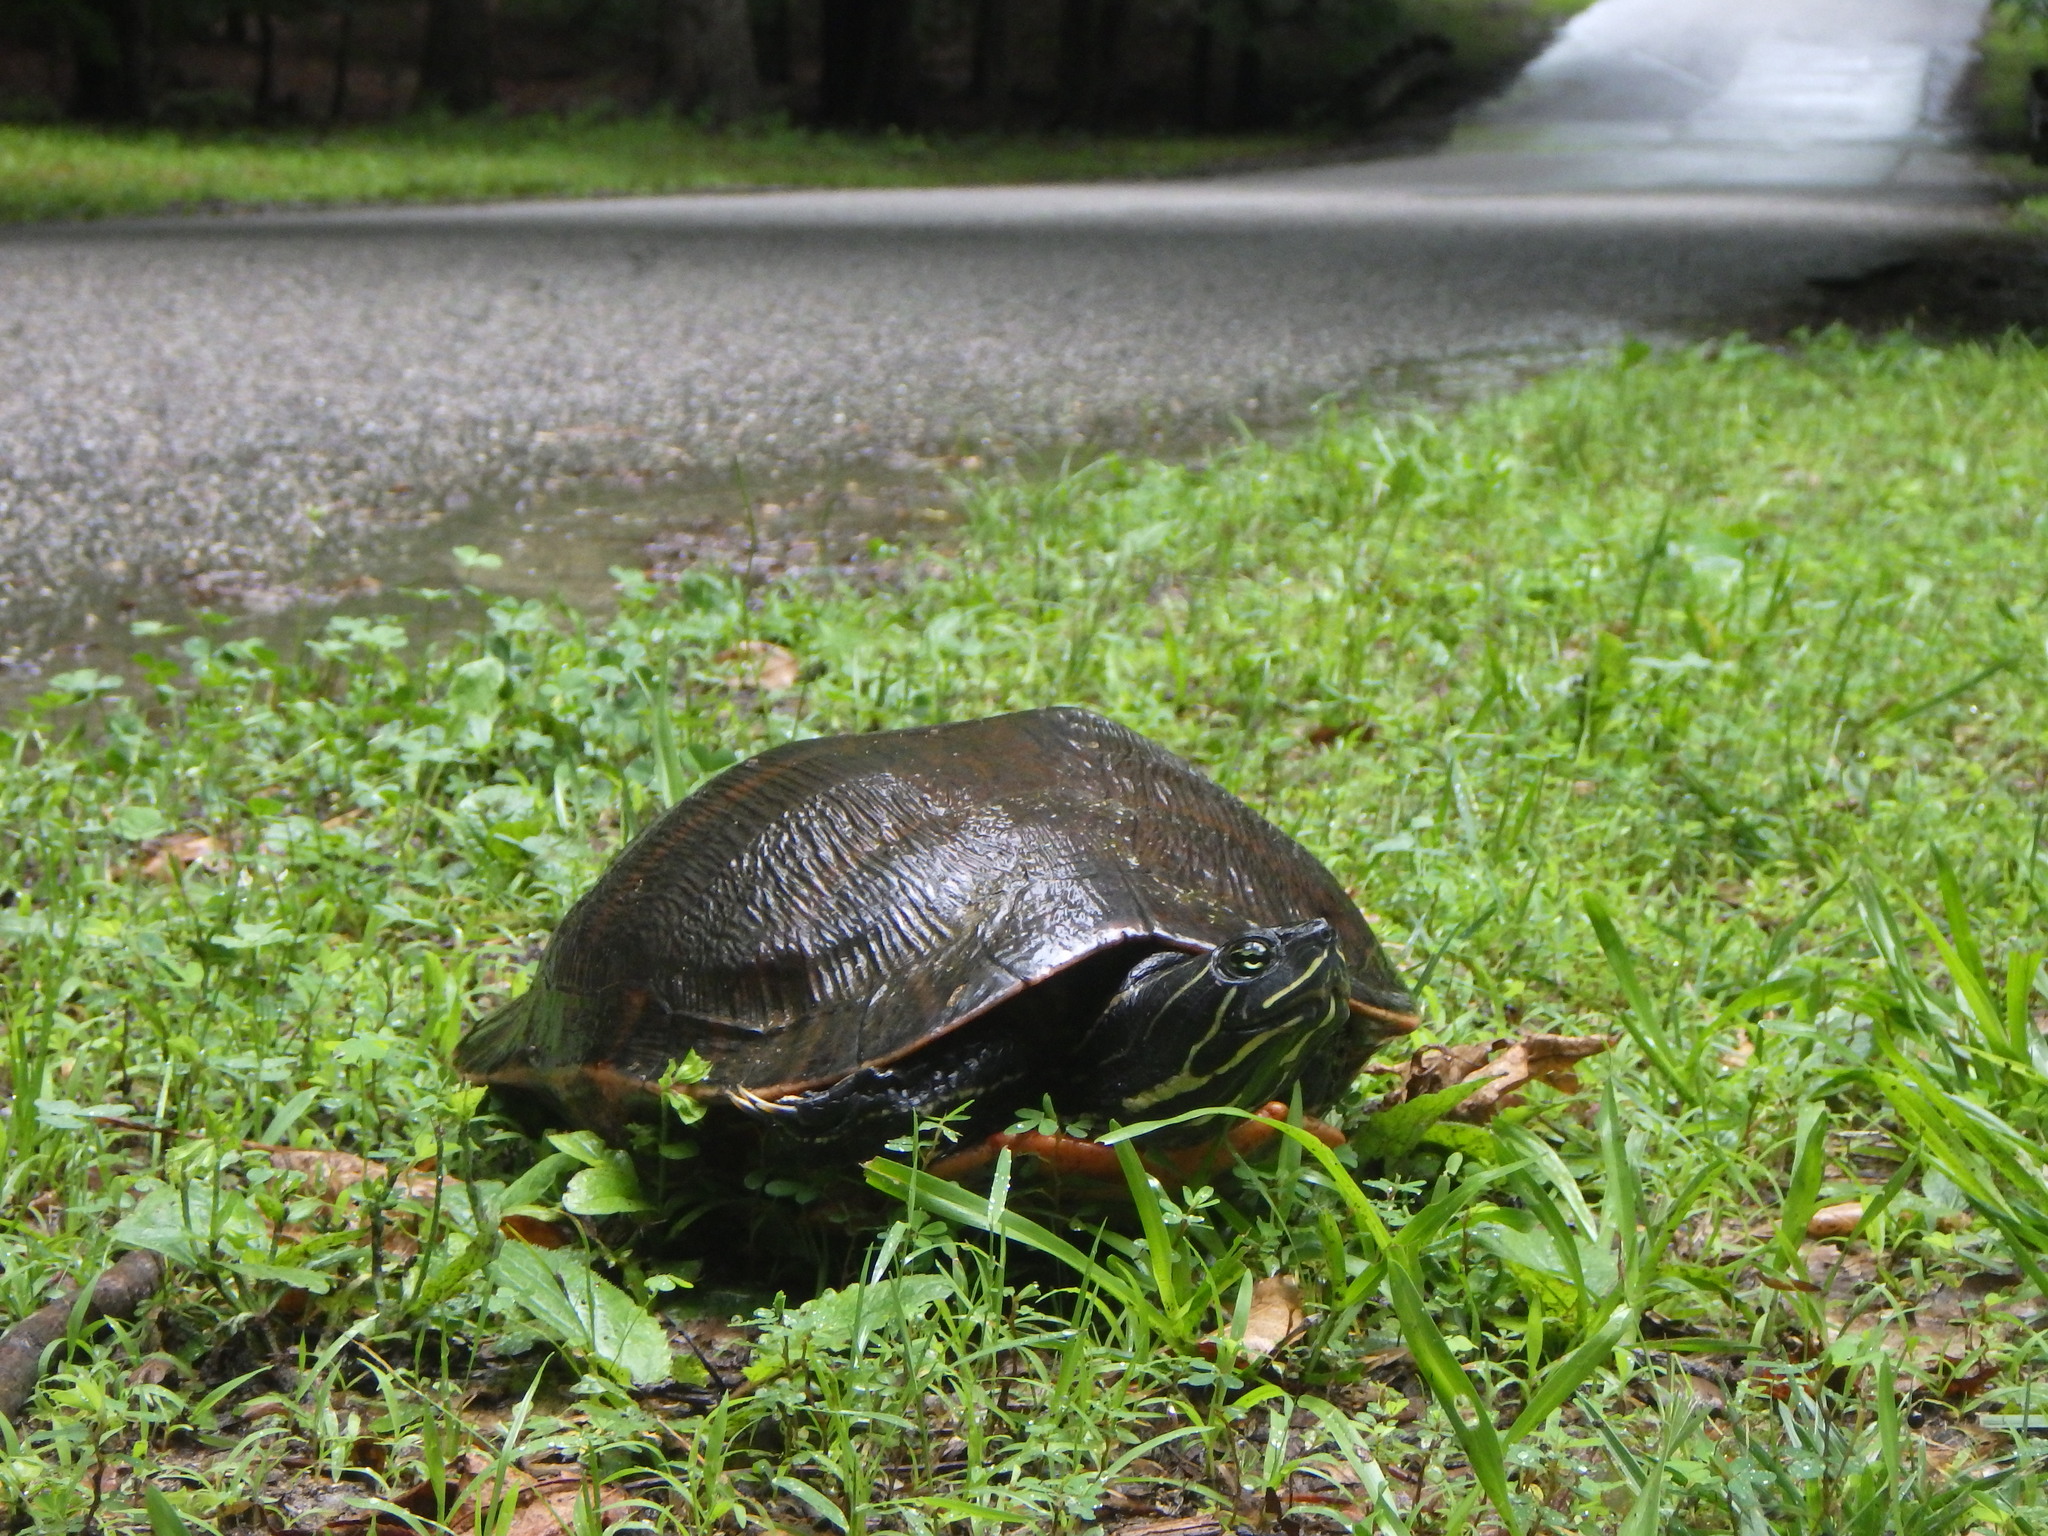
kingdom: Animalia
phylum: Chordata
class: Testudines
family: Emydidae
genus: Pseudemys
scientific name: Pseudemys rubriventris
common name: American red-bellied turtle
